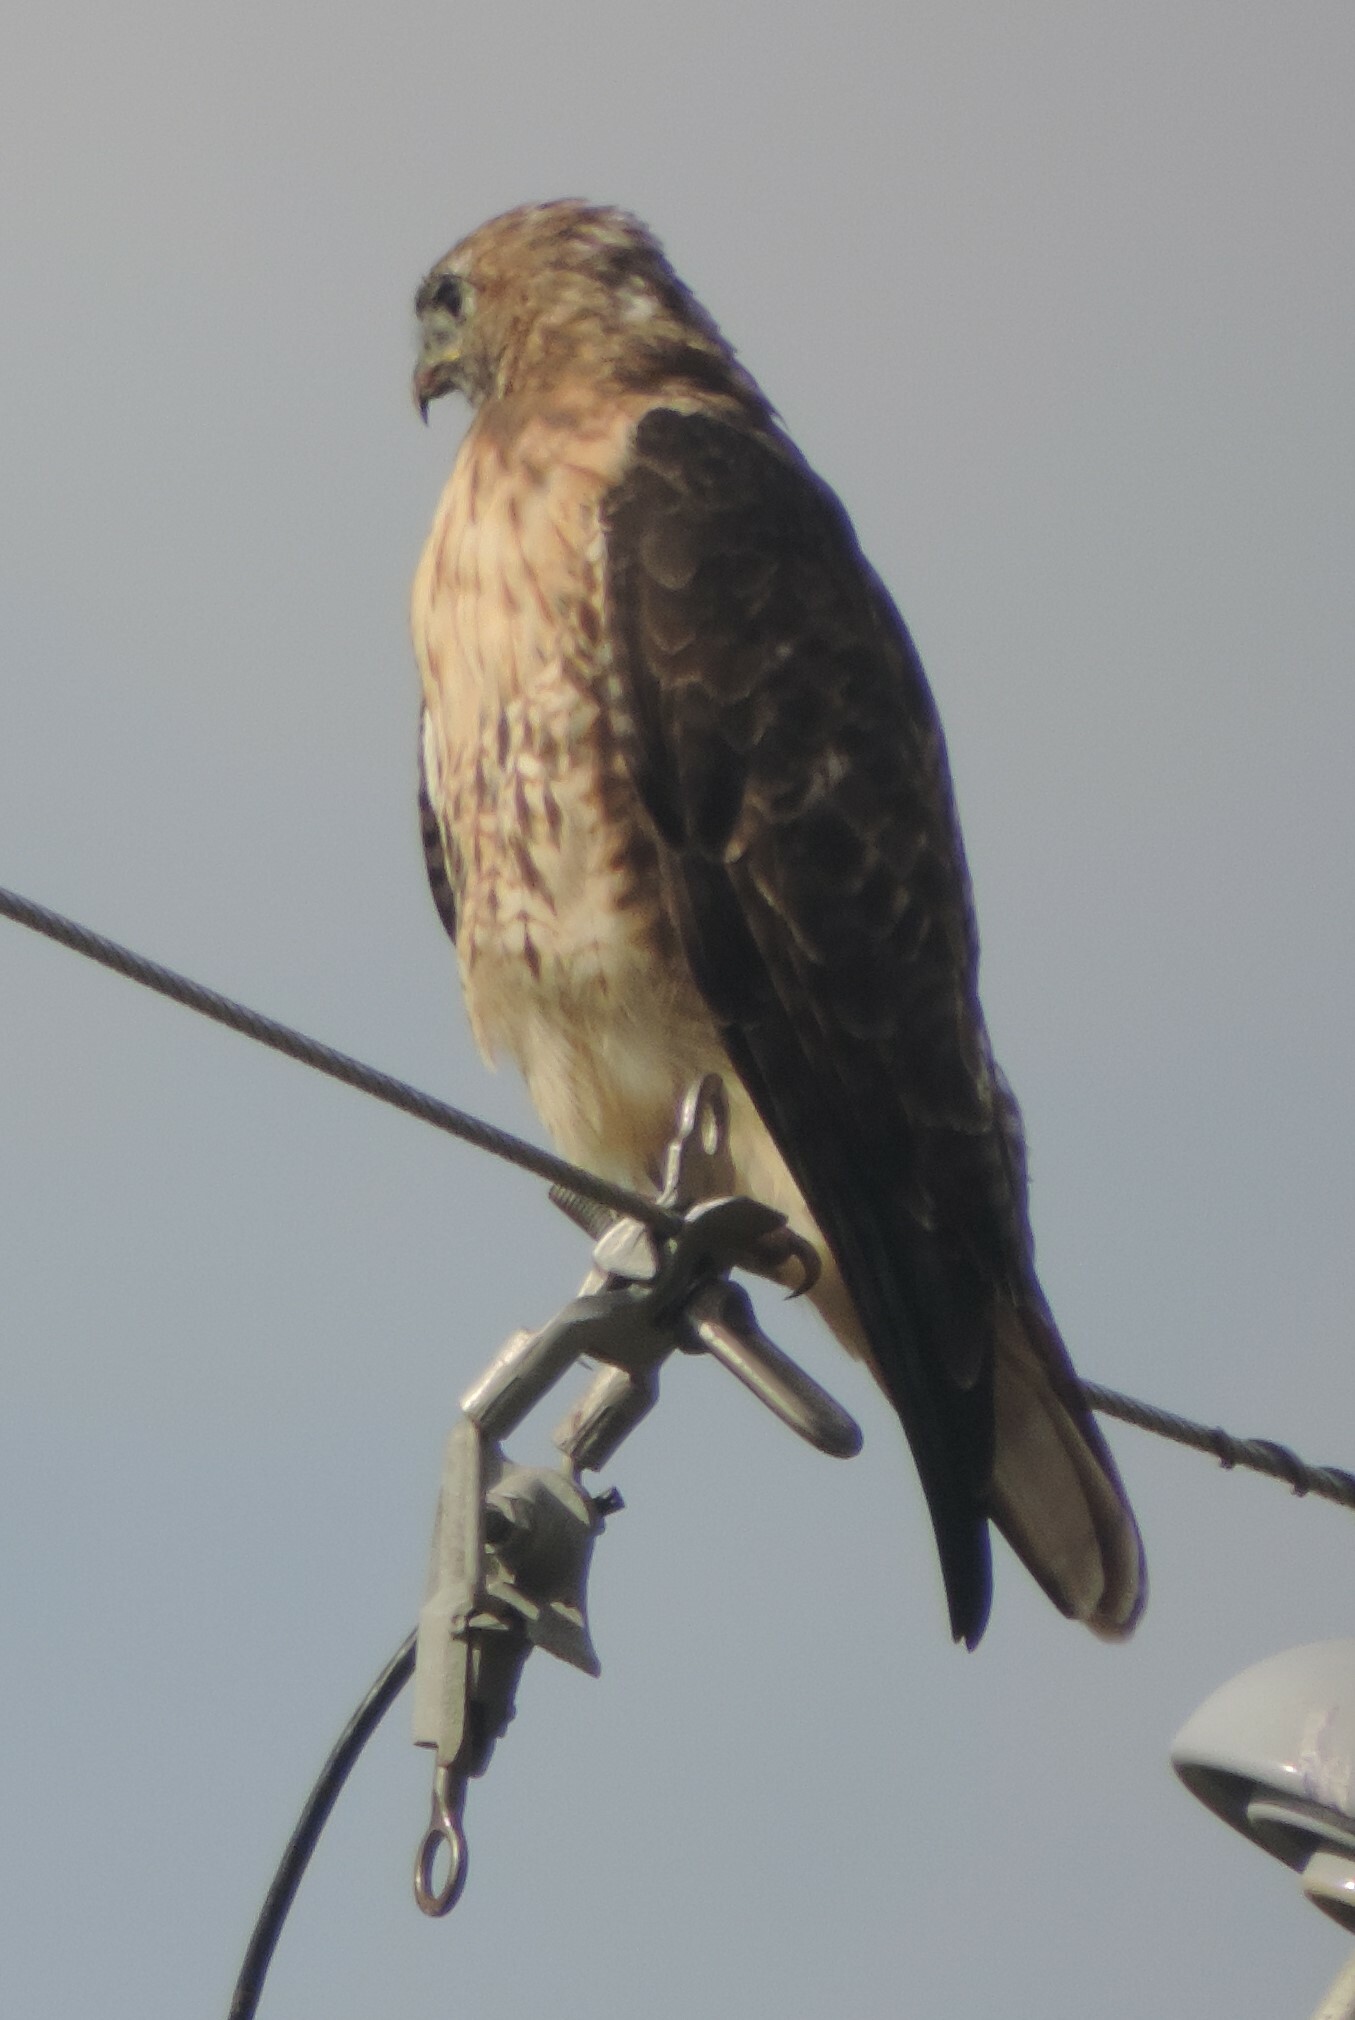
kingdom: Animalia
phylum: Chordata
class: Aves
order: Accipitriformes
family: Accipitridae
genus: Buteo
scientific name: Buteo jamaicensis
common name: Red-tailed hawk
